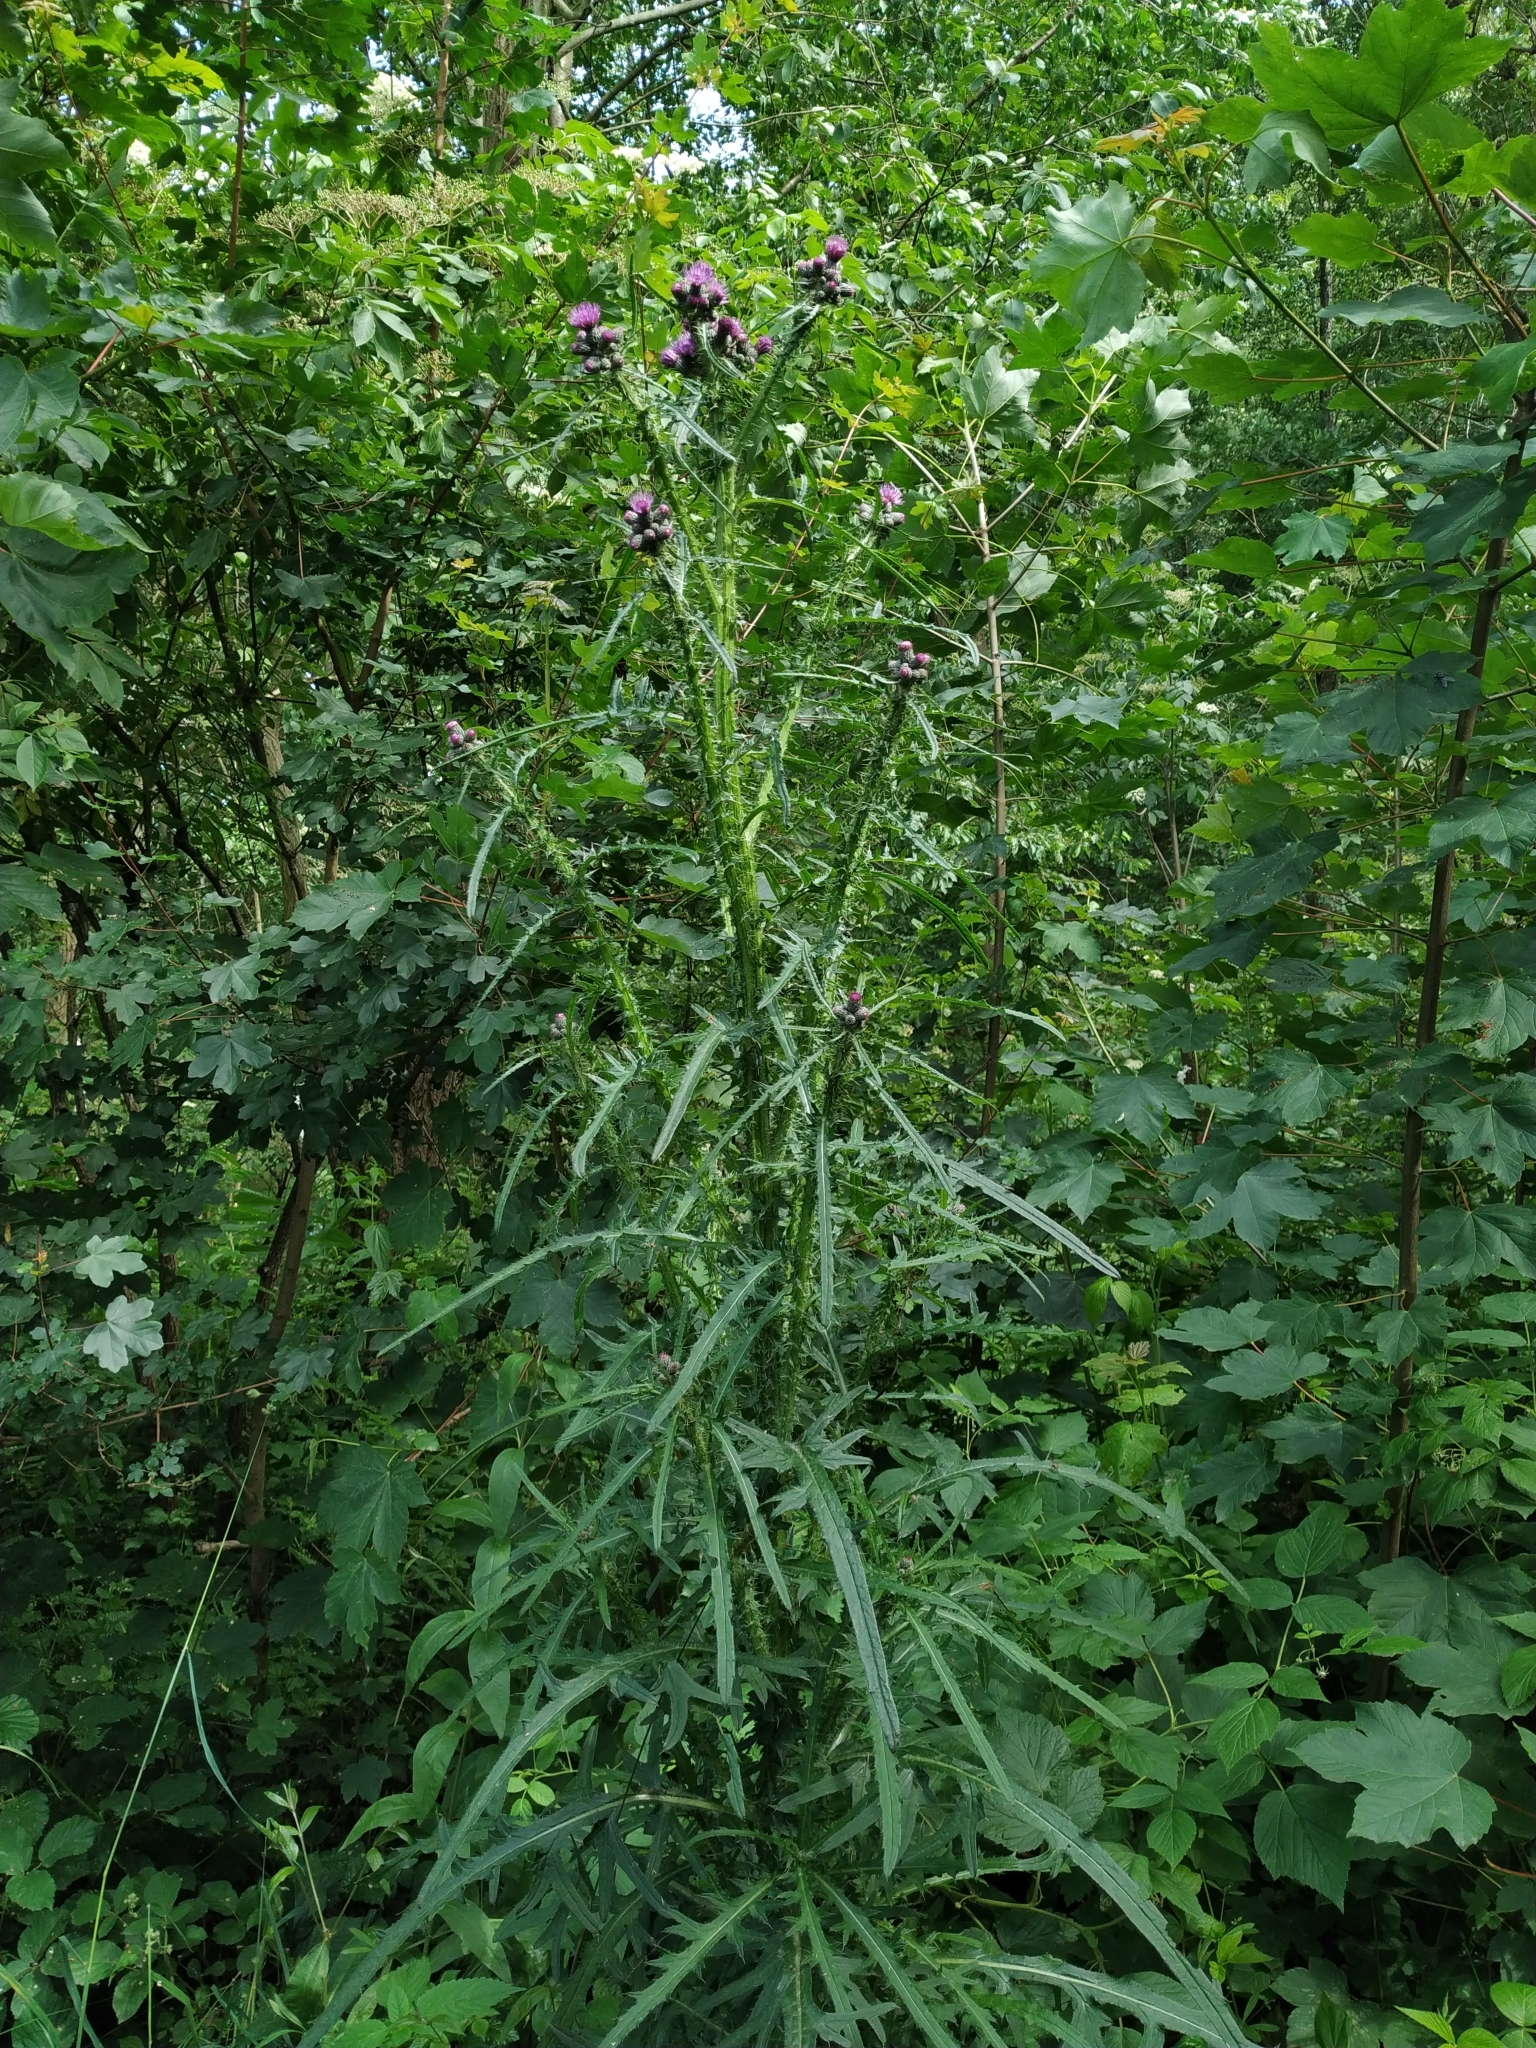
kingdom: Plantae
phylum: Tracheophyta
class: Magnoliopsida
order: Asterales
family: Asteraceae
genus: Cirsium
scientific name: Cirsium palustre
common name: Marsh thistle
